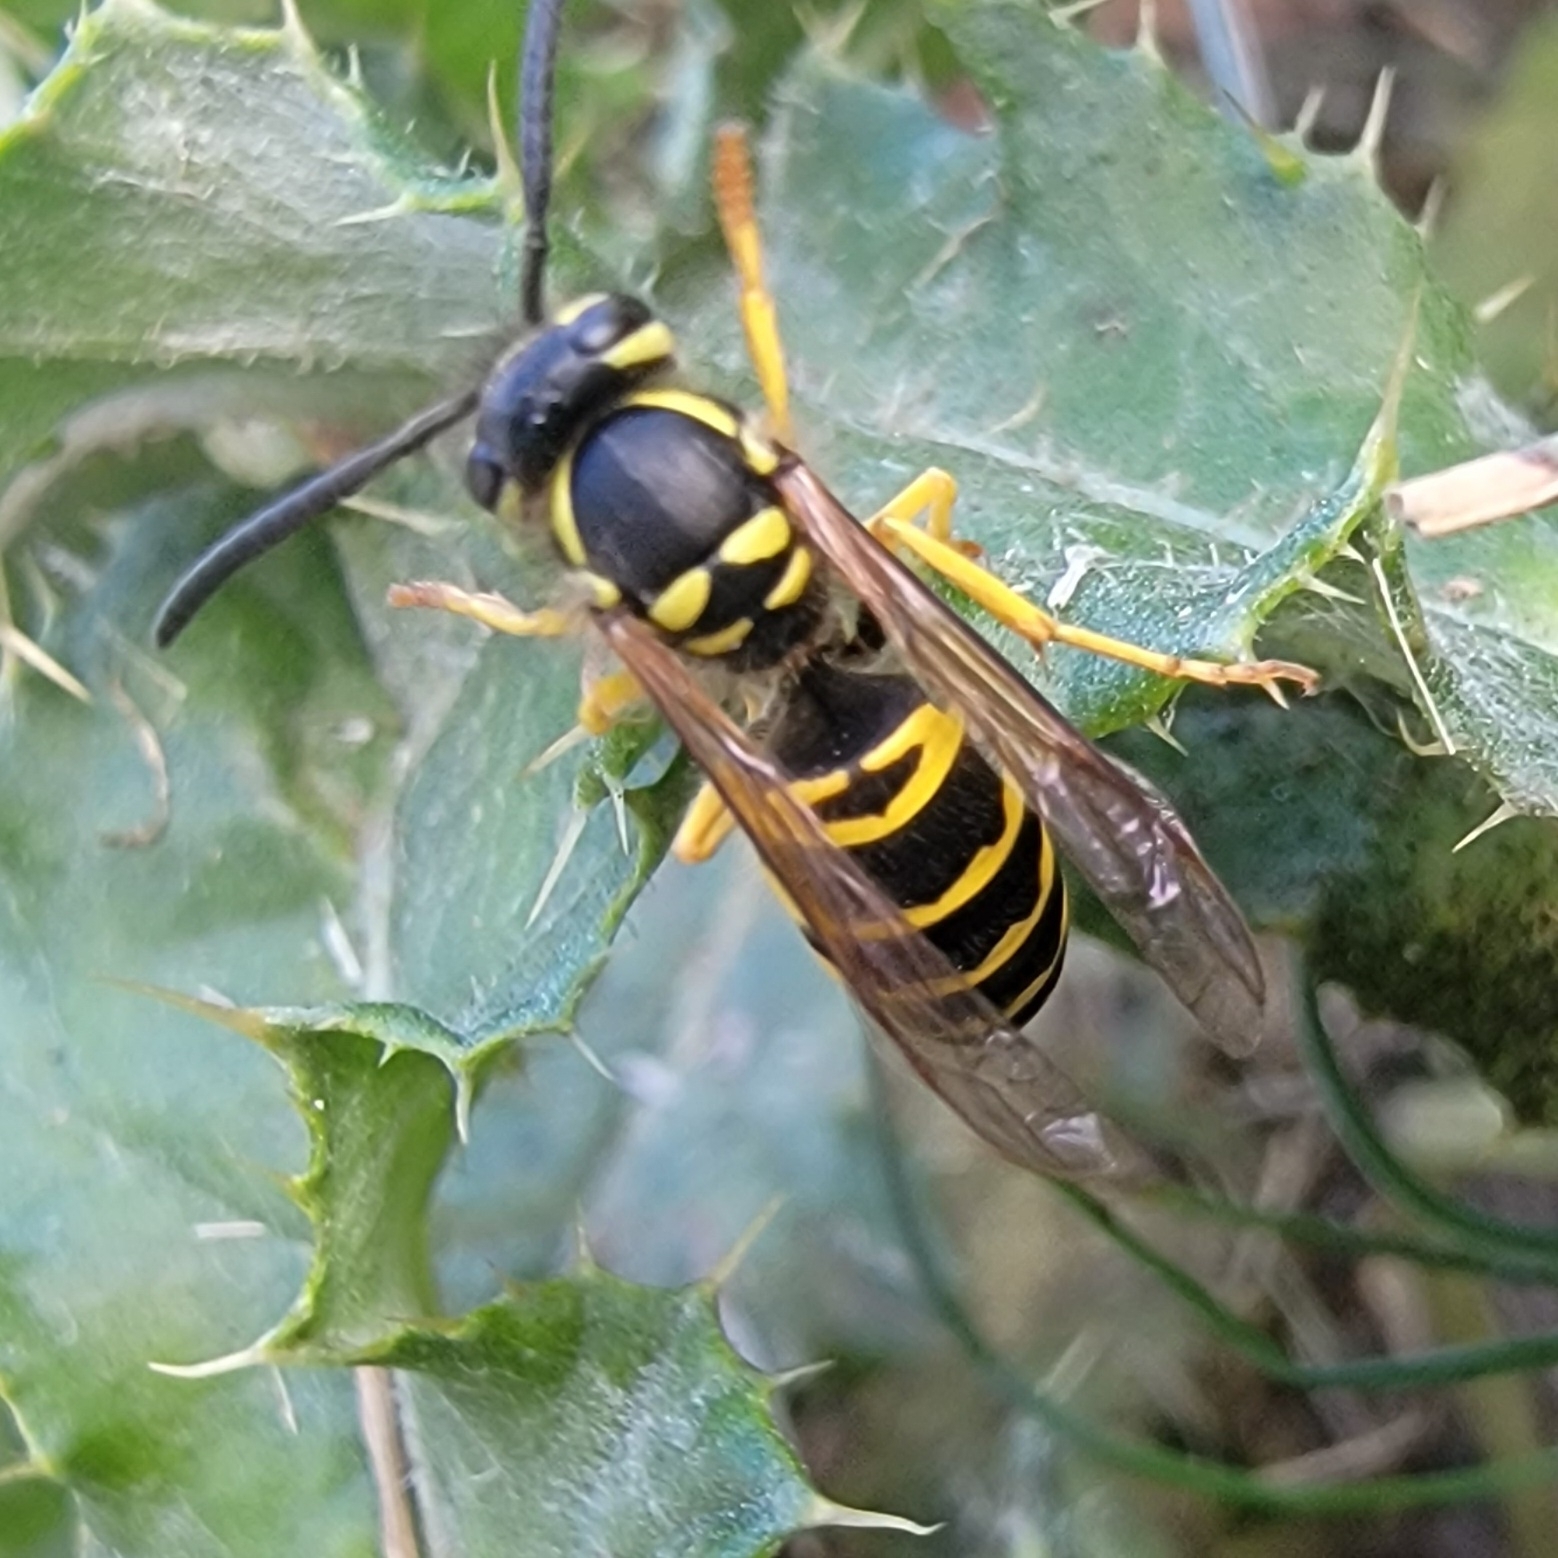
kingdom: Animalia
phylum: Arthropoda
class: Insecta
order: Hymenoptera
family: Vespidae
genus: Vespula
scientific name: Vespula maculifrons
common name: Eastern yellowjacket
